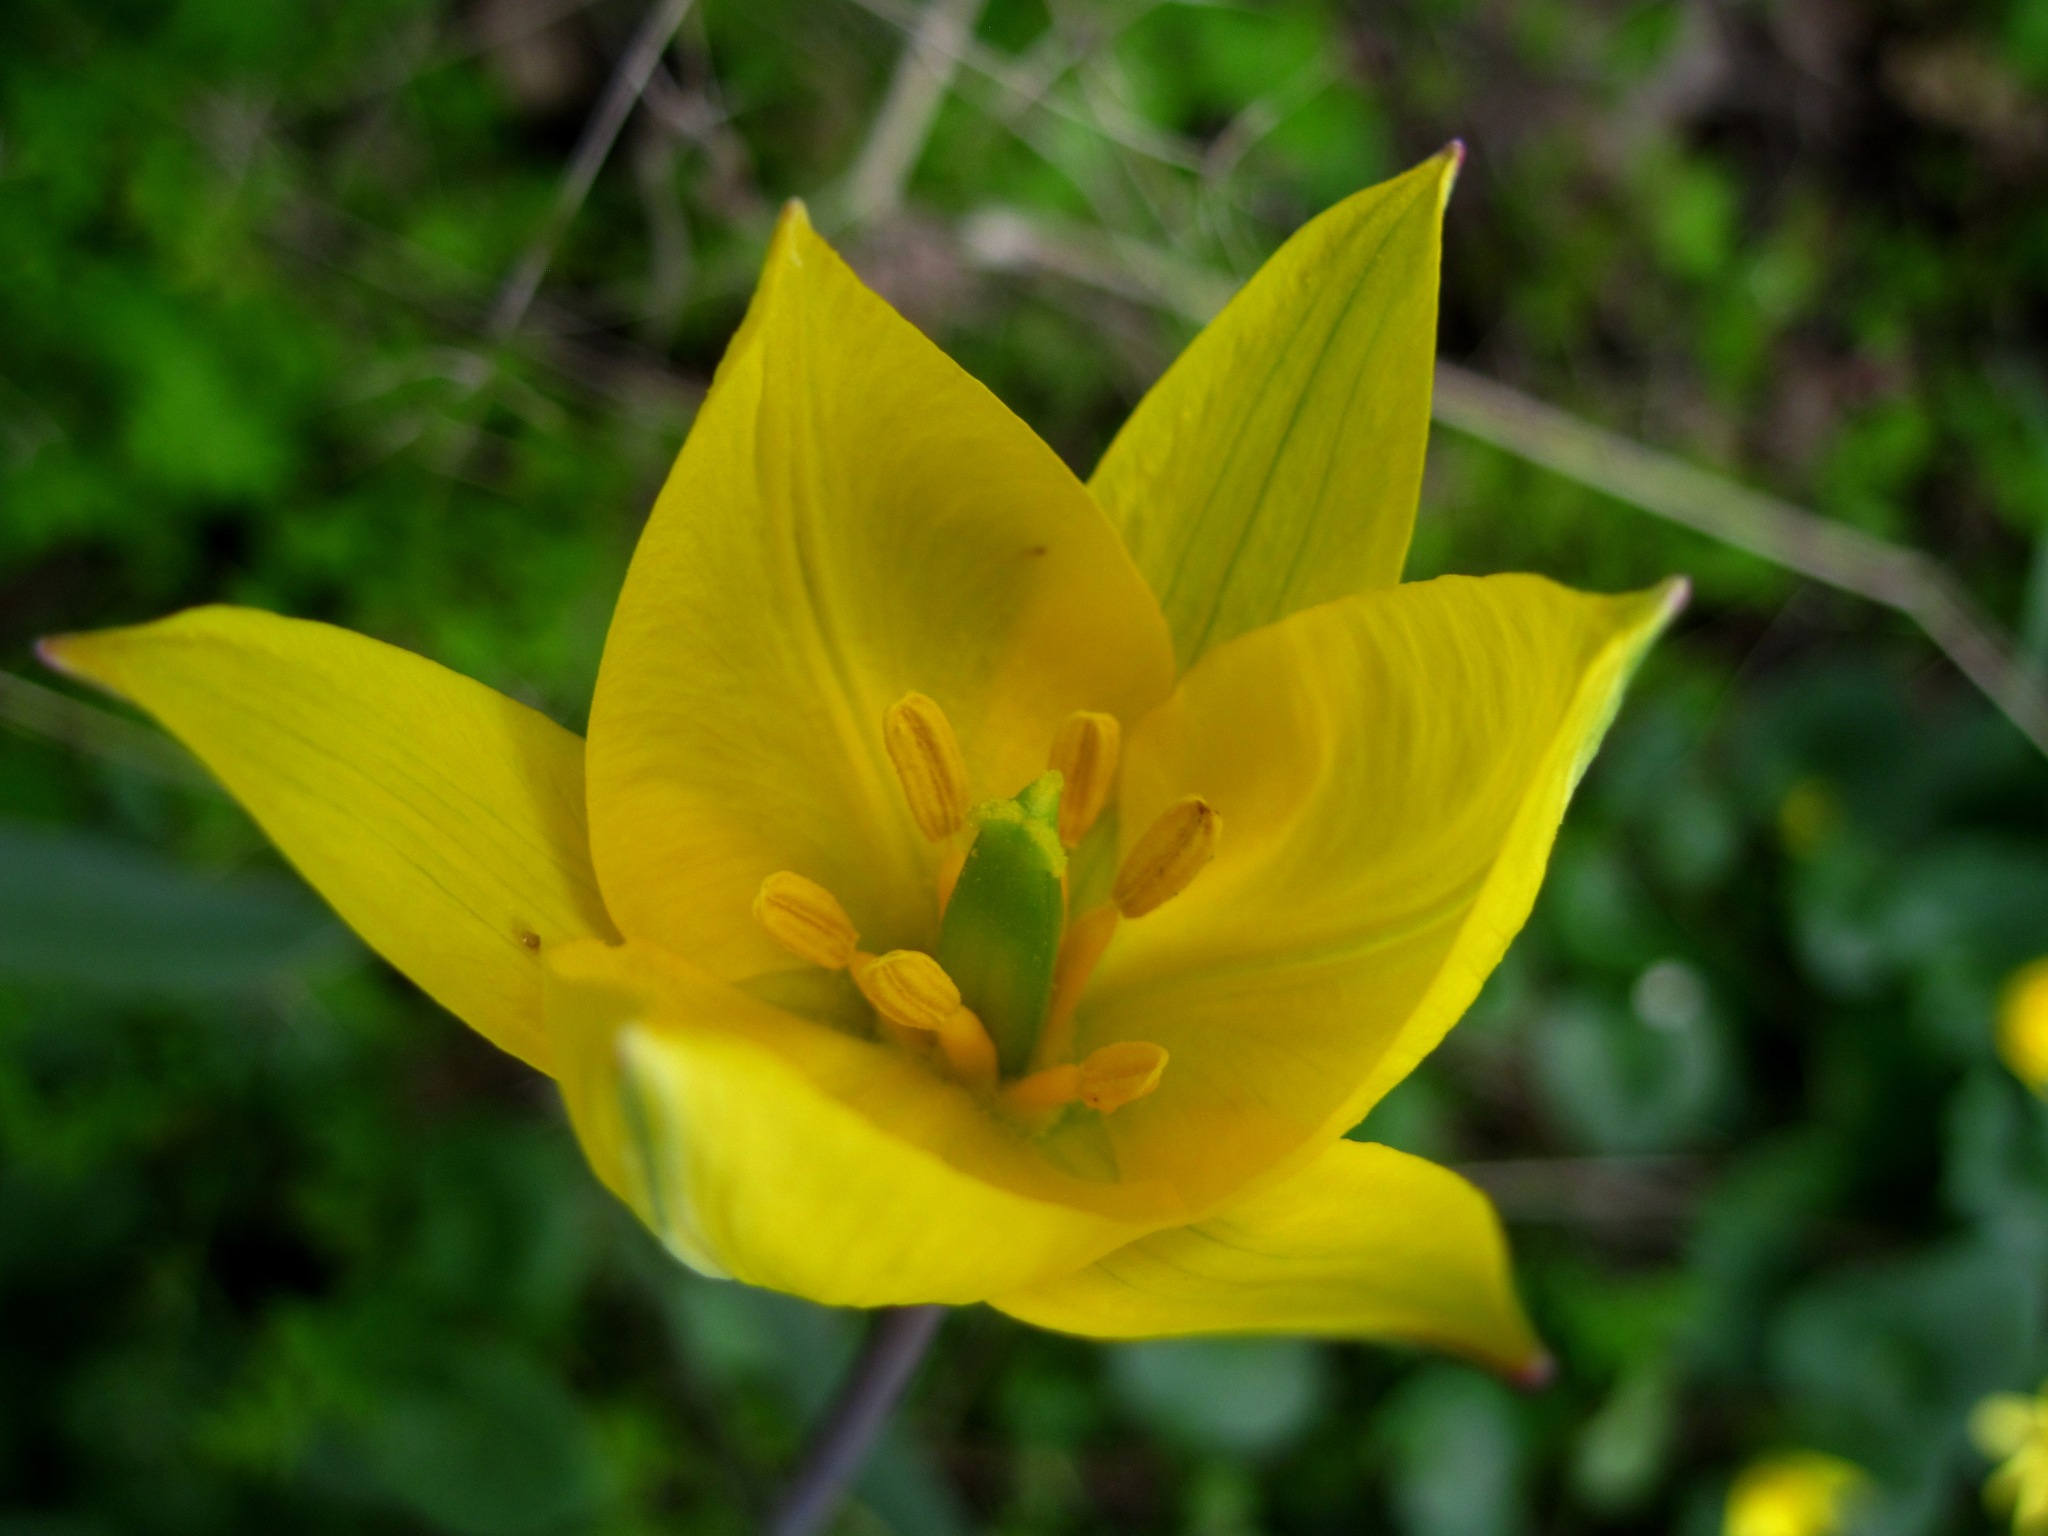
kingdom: Plantae
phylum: Tracheophyta
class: Liliopsida
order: Liliales
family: Liliaceae
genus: Tulipa
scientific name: Tulipa sylvestris
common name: Wild tulip
